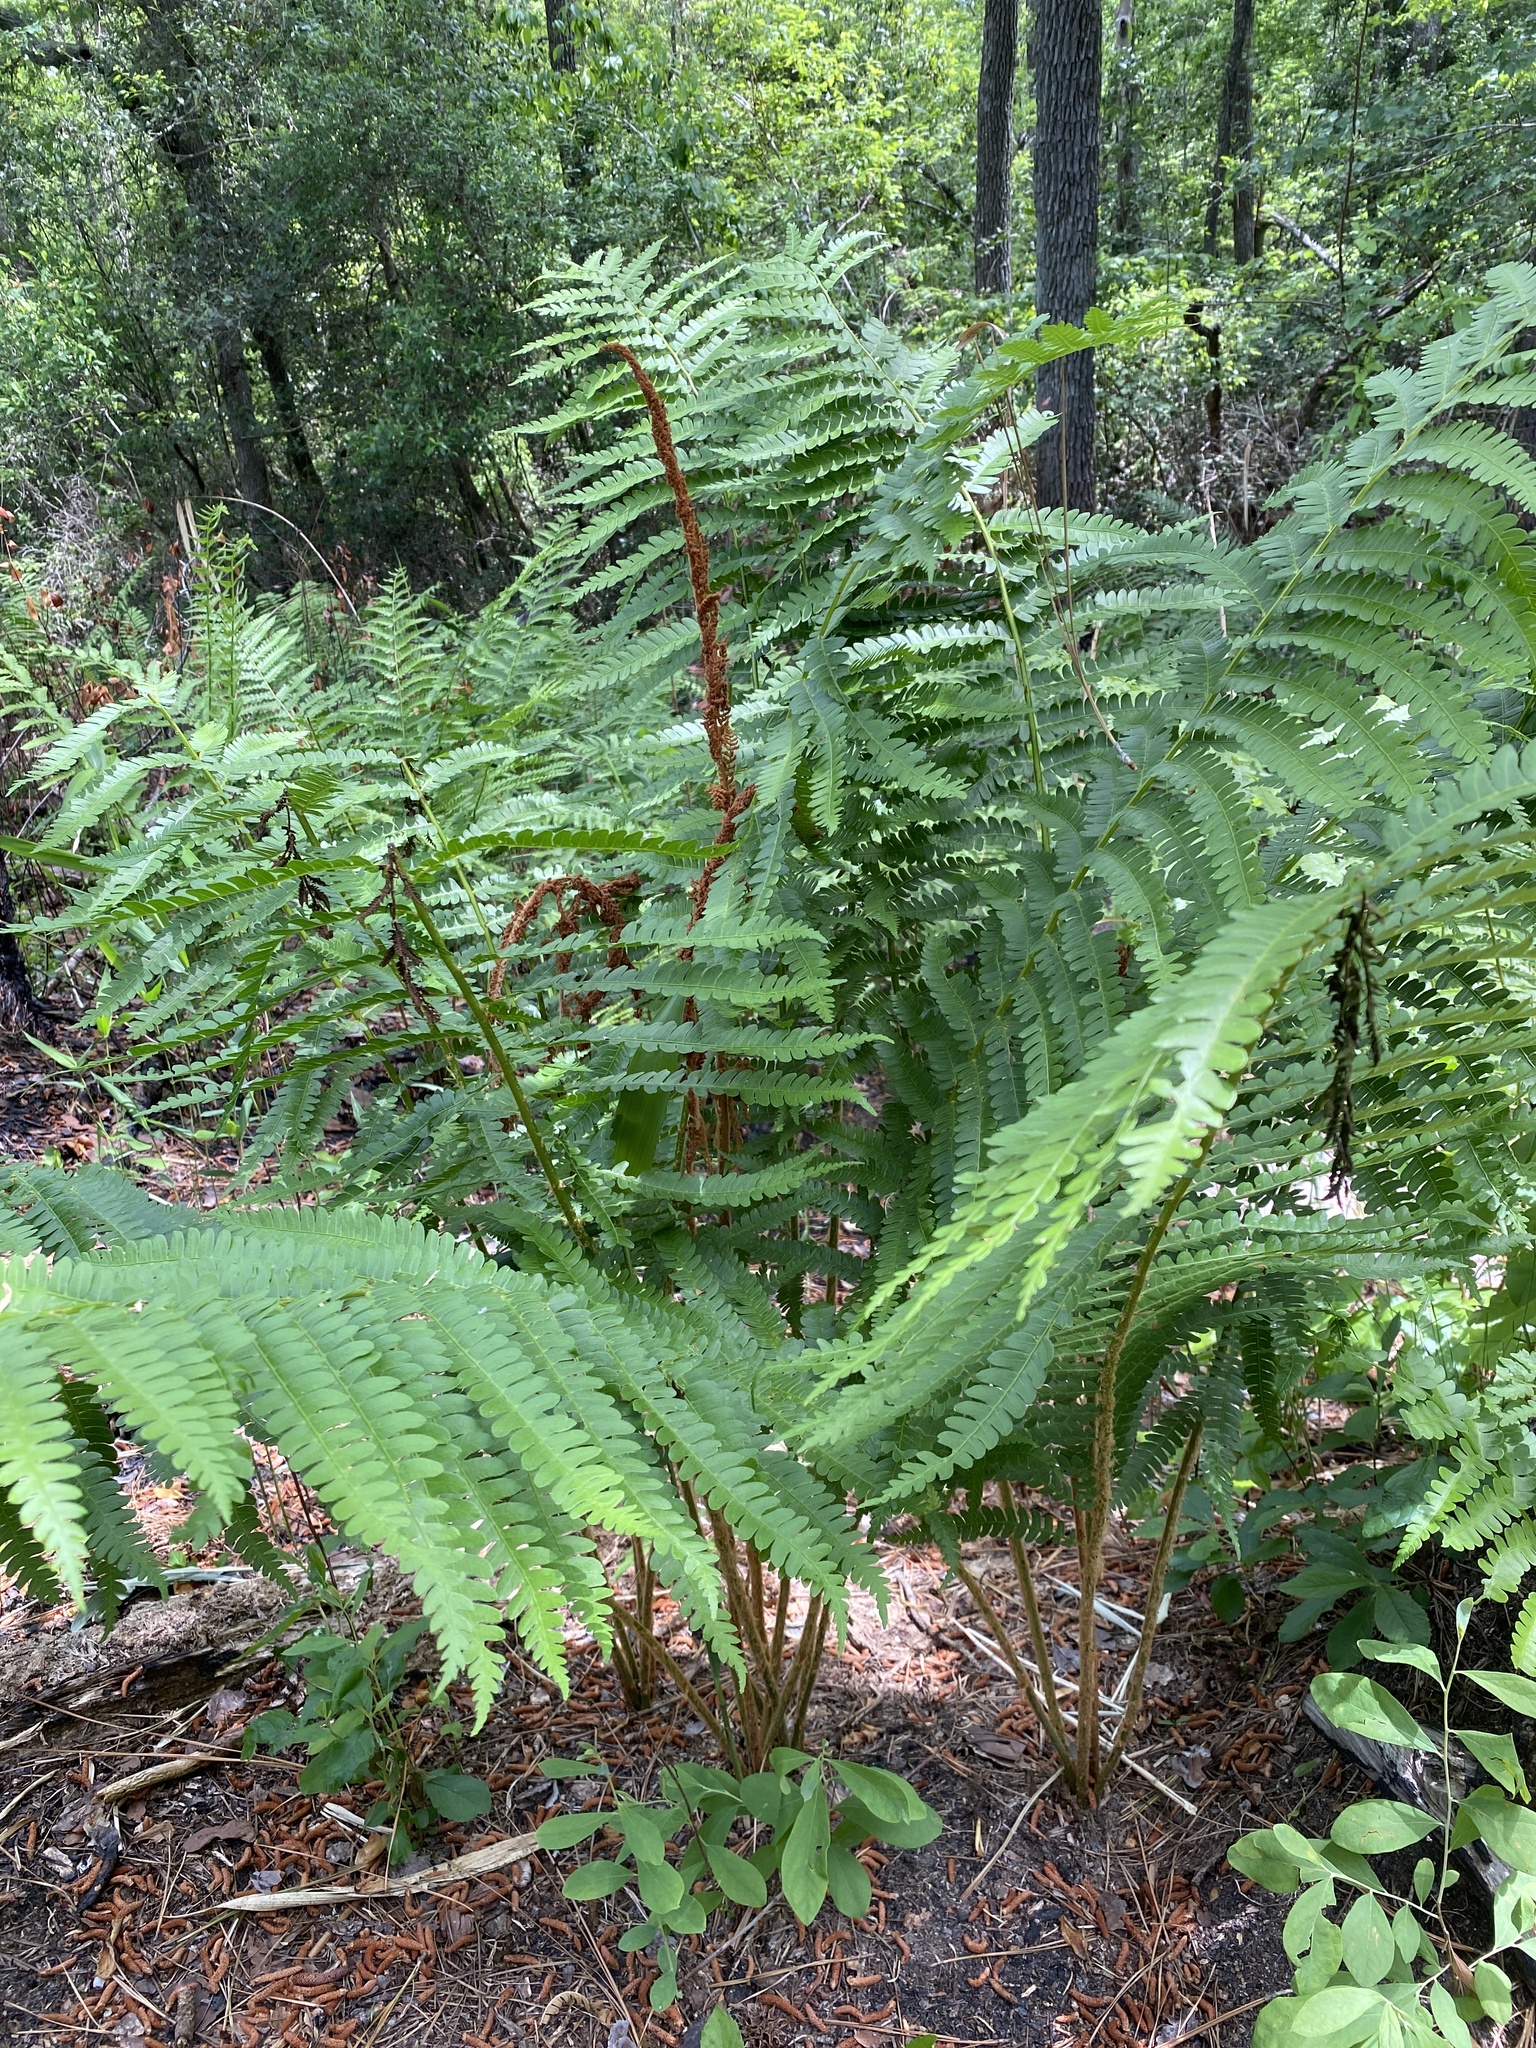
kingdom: Plantae
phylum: Tracheophyta
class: Polypodiopsida
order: Osmundales
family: Osmundaceae
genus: Osmundastrum
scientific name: Osmundastrum cinnamomeum
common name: Cinnamon fern
